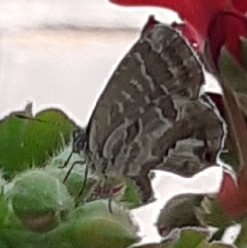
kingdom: Animalia
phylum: Arthropoda
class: Insecta
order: Lepidoptera
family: Lycaenidae
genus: Cacyreus
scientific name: Cacyreus marshalli
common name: Geranium bronze
